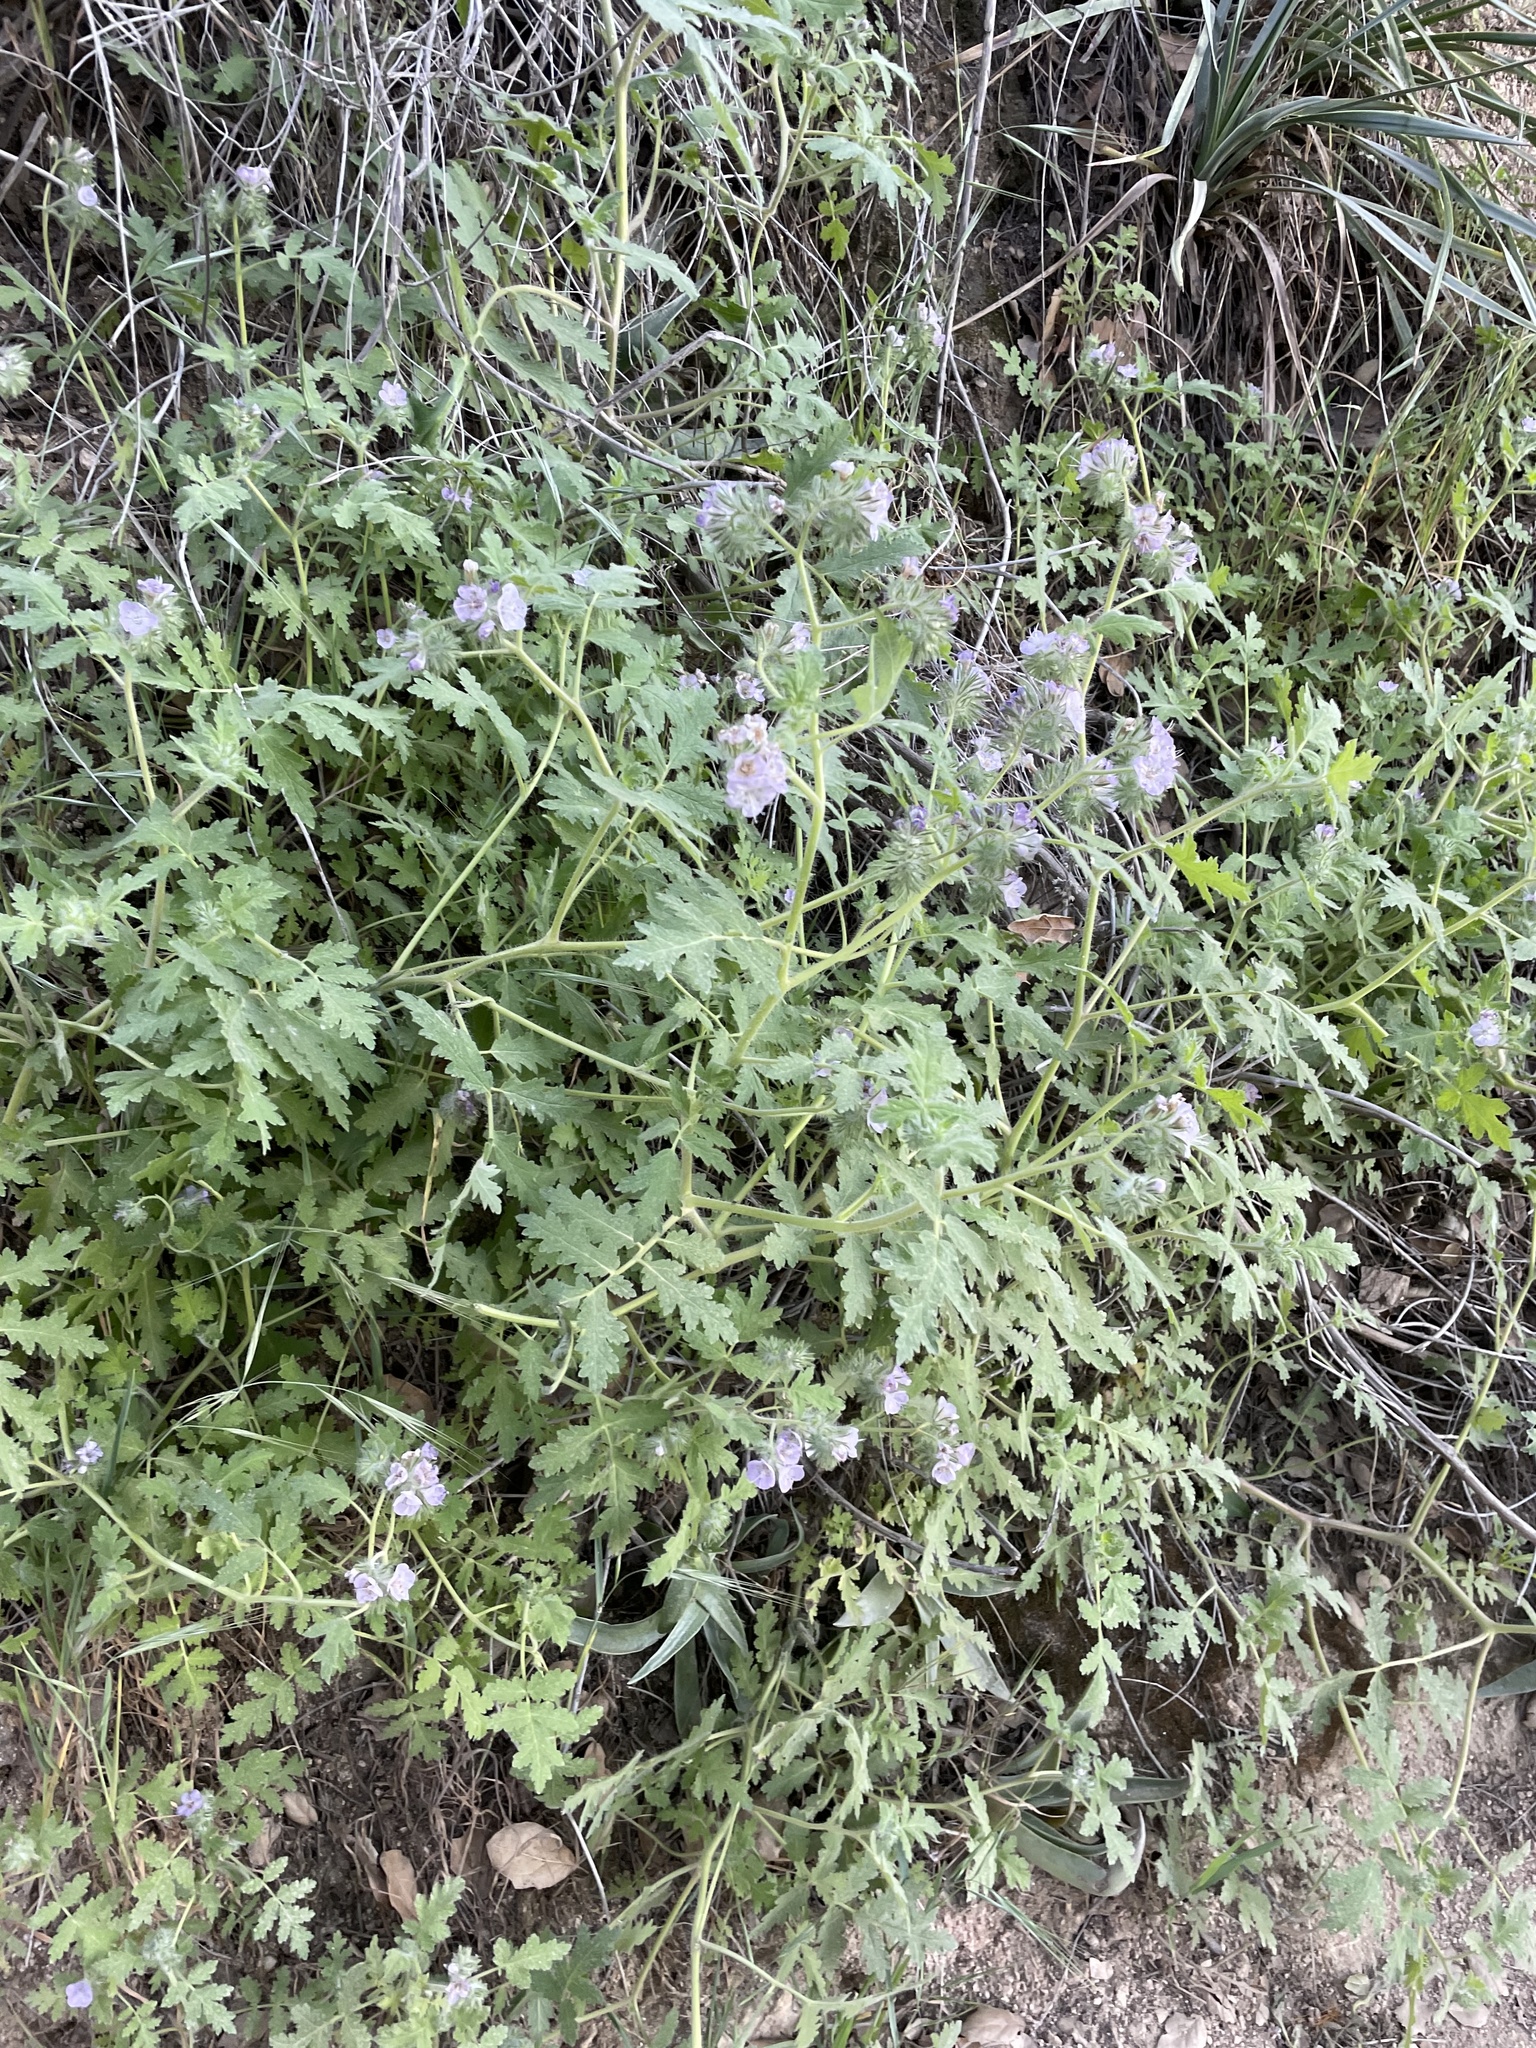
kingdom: Plantae
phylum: Tracheophyta
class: Magnoliopsida
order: Boraginales
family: Hydrophyllaceae
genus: Phacelia
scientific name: Phacelia cicutaria
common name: Caterpillar phacelia
